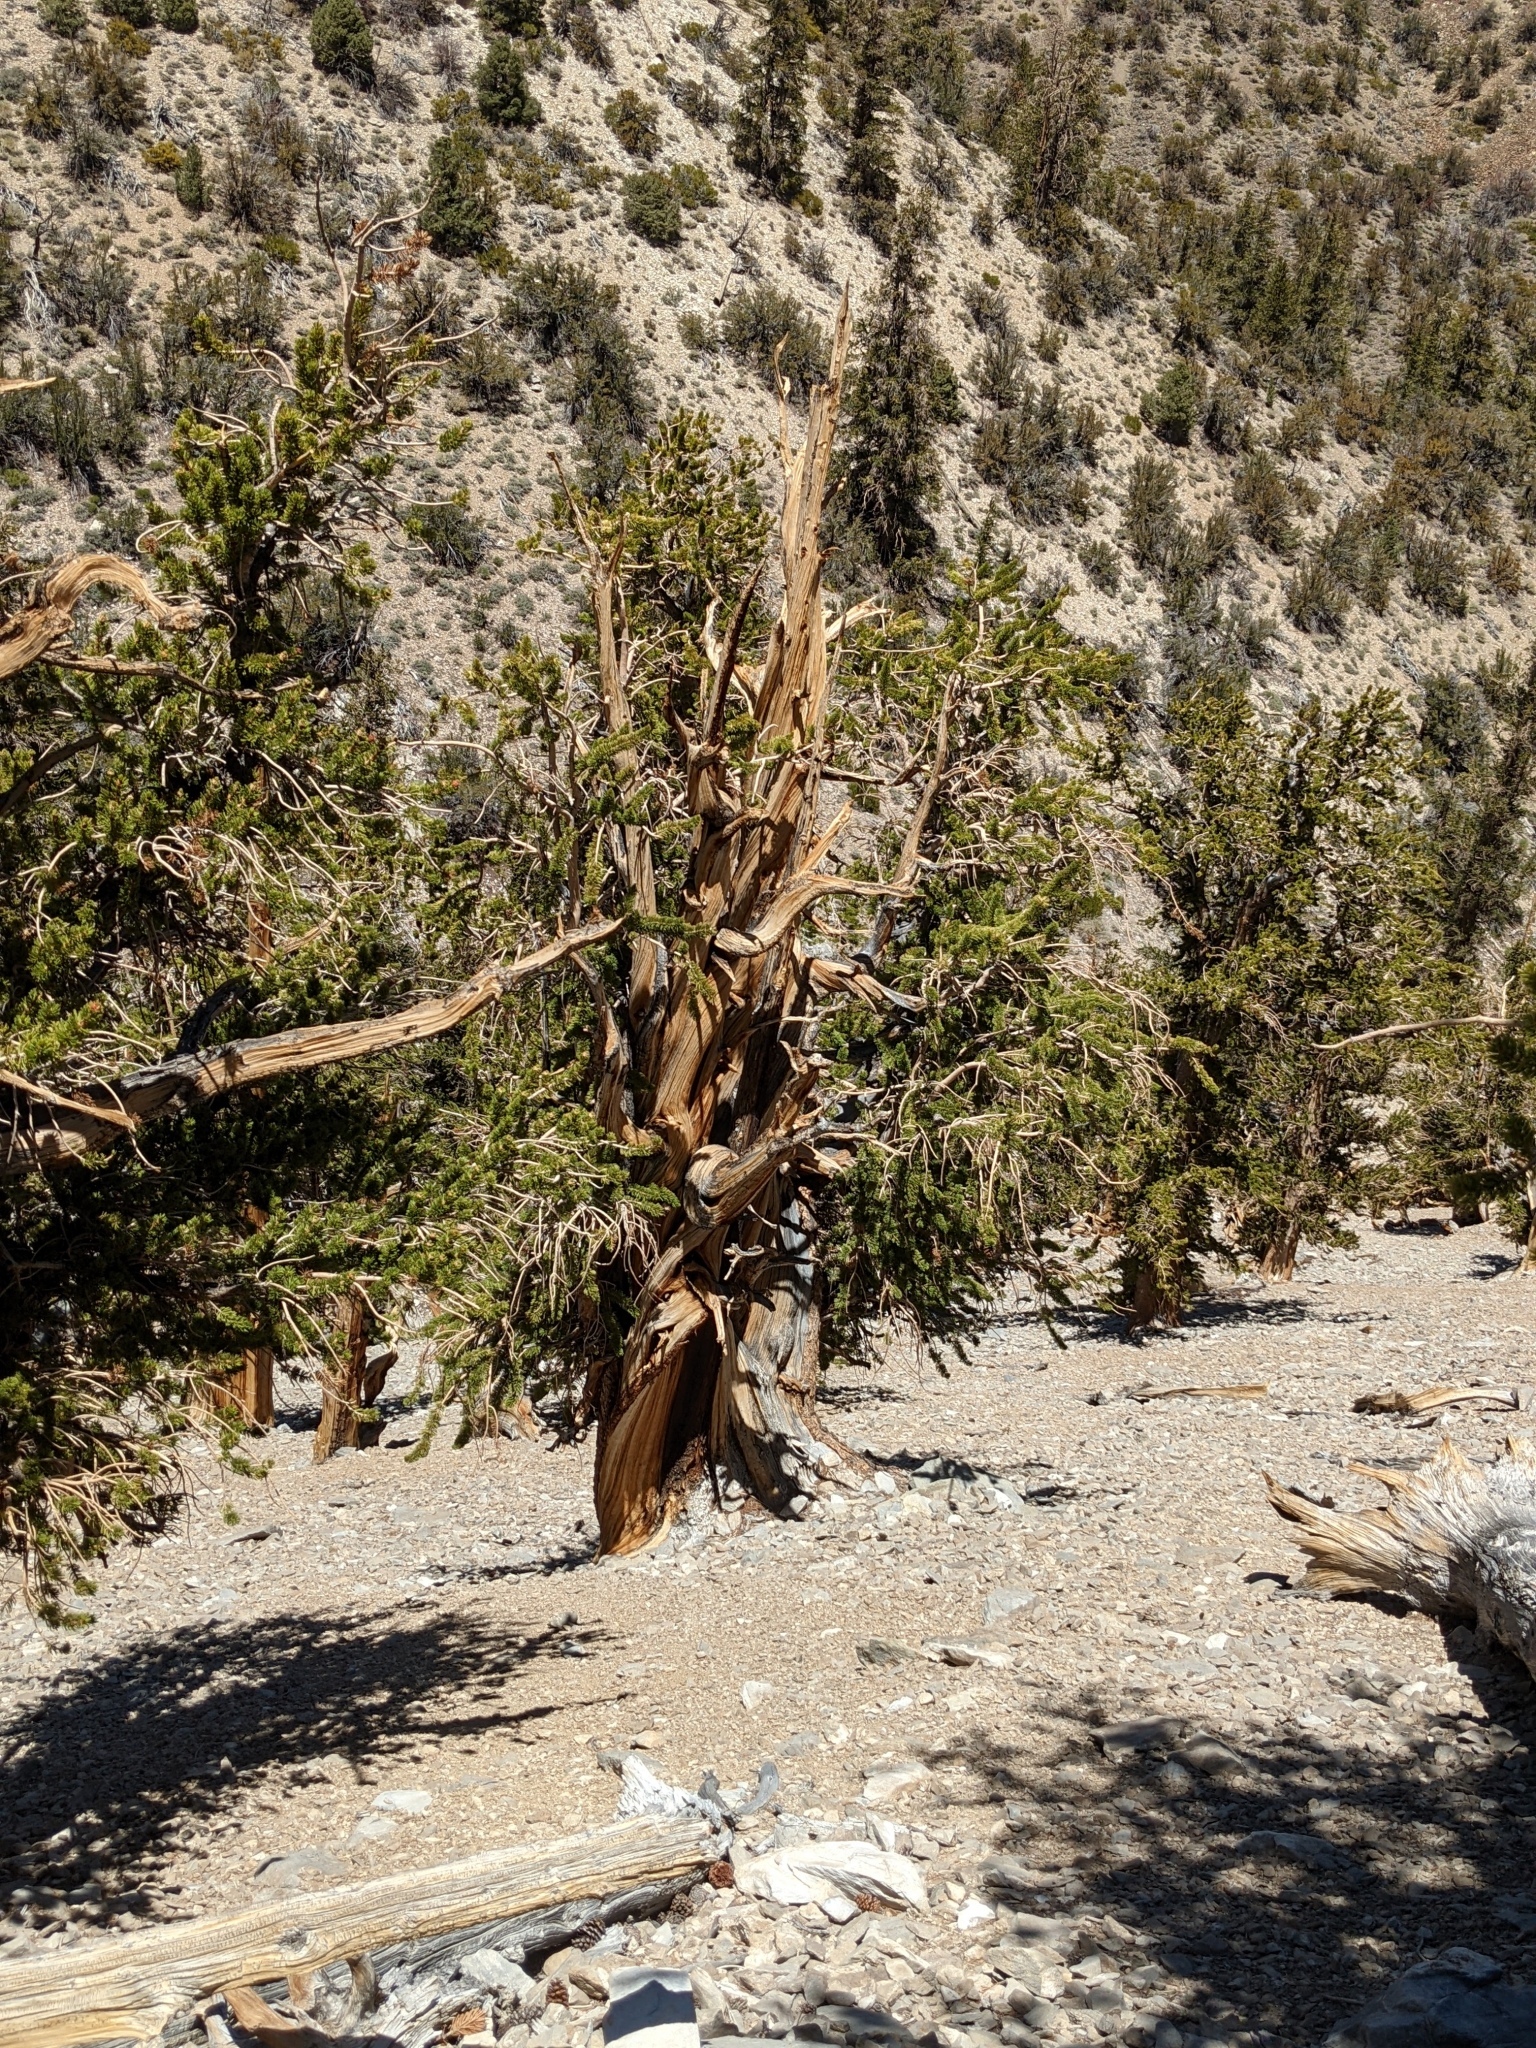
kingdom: Plantae
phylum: Tracheophyta
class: Pinopsida
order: Pinales
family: Pinaceae
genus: Pinus
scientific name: Pinus longaeva
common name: Intermountain bristlecone pine
